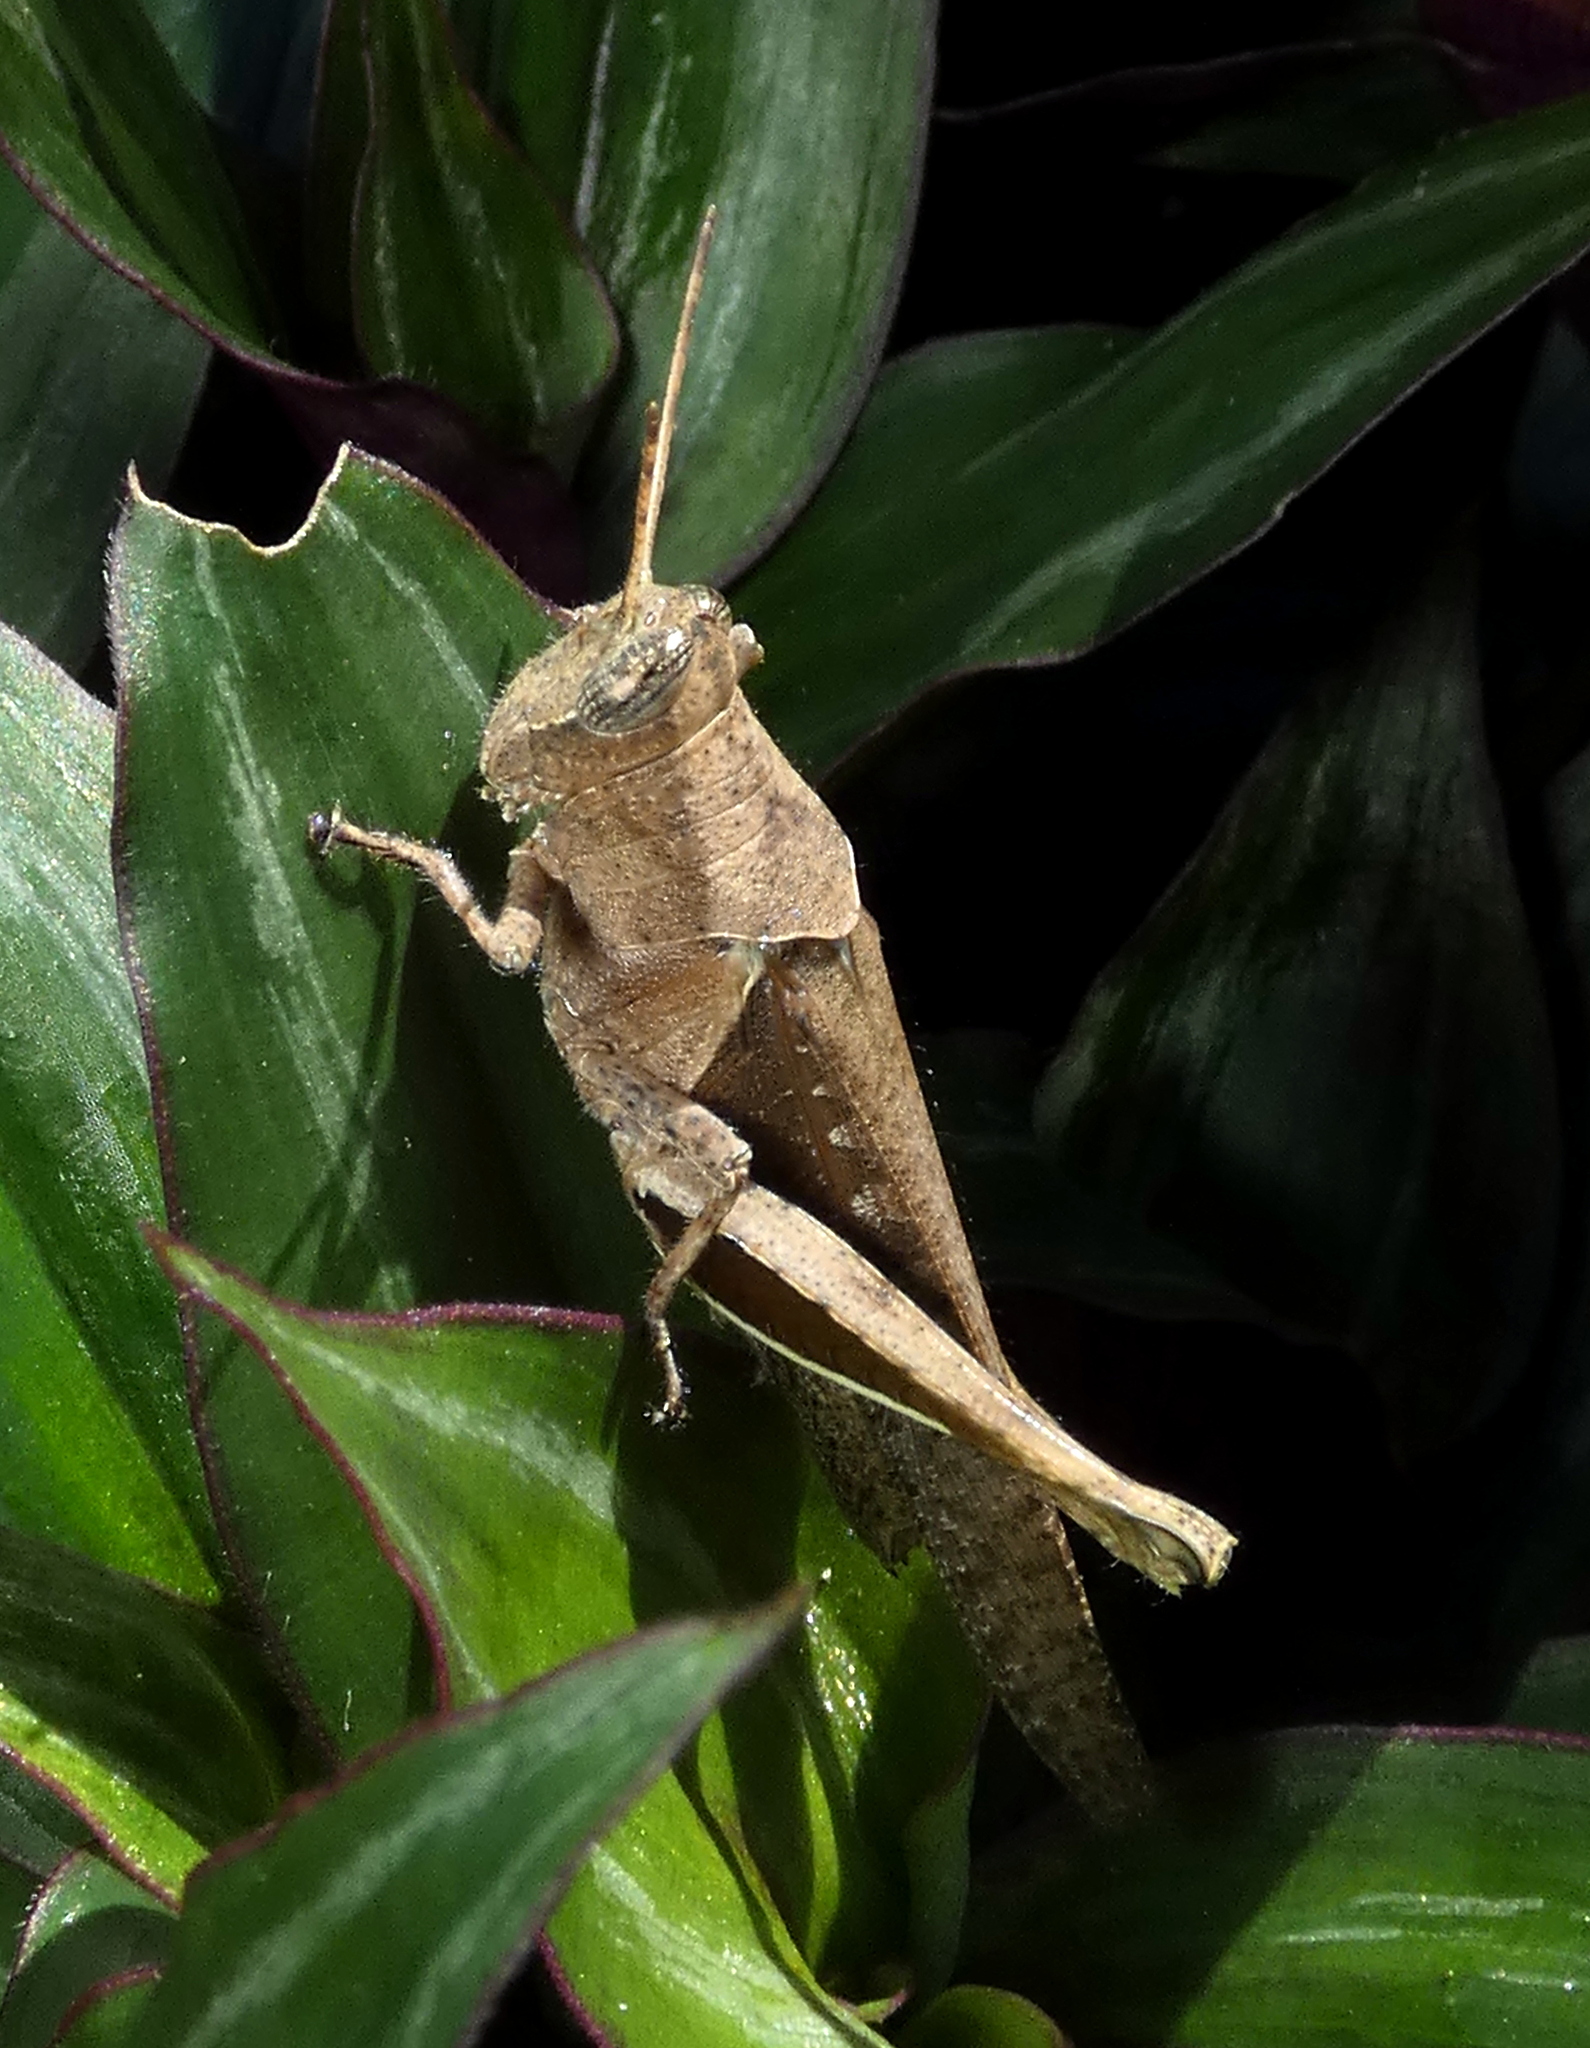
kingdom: Animalia
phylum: Arthropoda
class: Insecta
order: Orthoptera
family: Acrididae
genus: Abracris
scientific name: Abracris flavolineata
